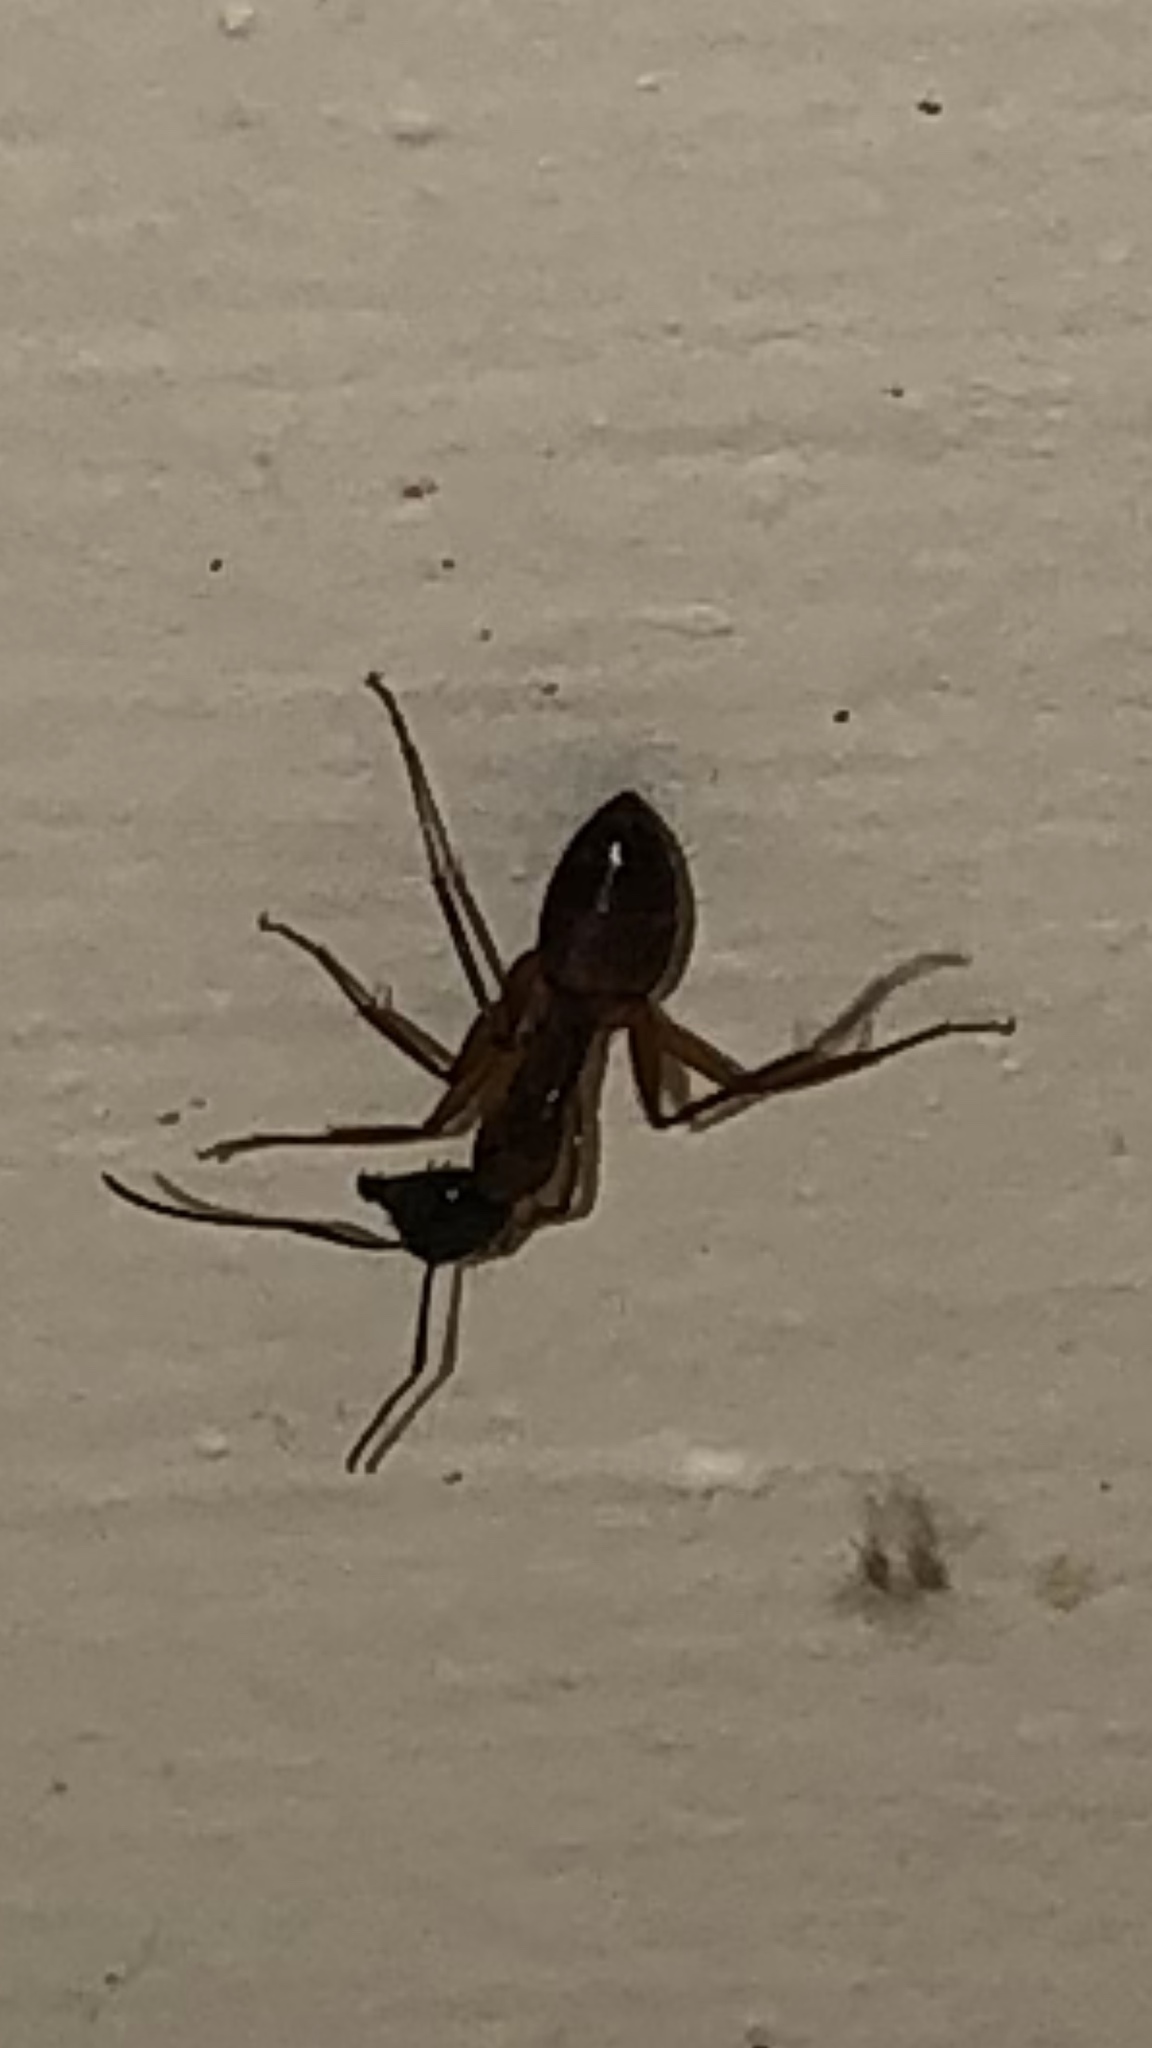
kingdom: Animalia
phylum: Arthropoda
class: Insecta
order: Hymenoptera
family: Formicidae
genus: Camponotus
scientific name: Camponotus americanus
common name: American carpenter ant
